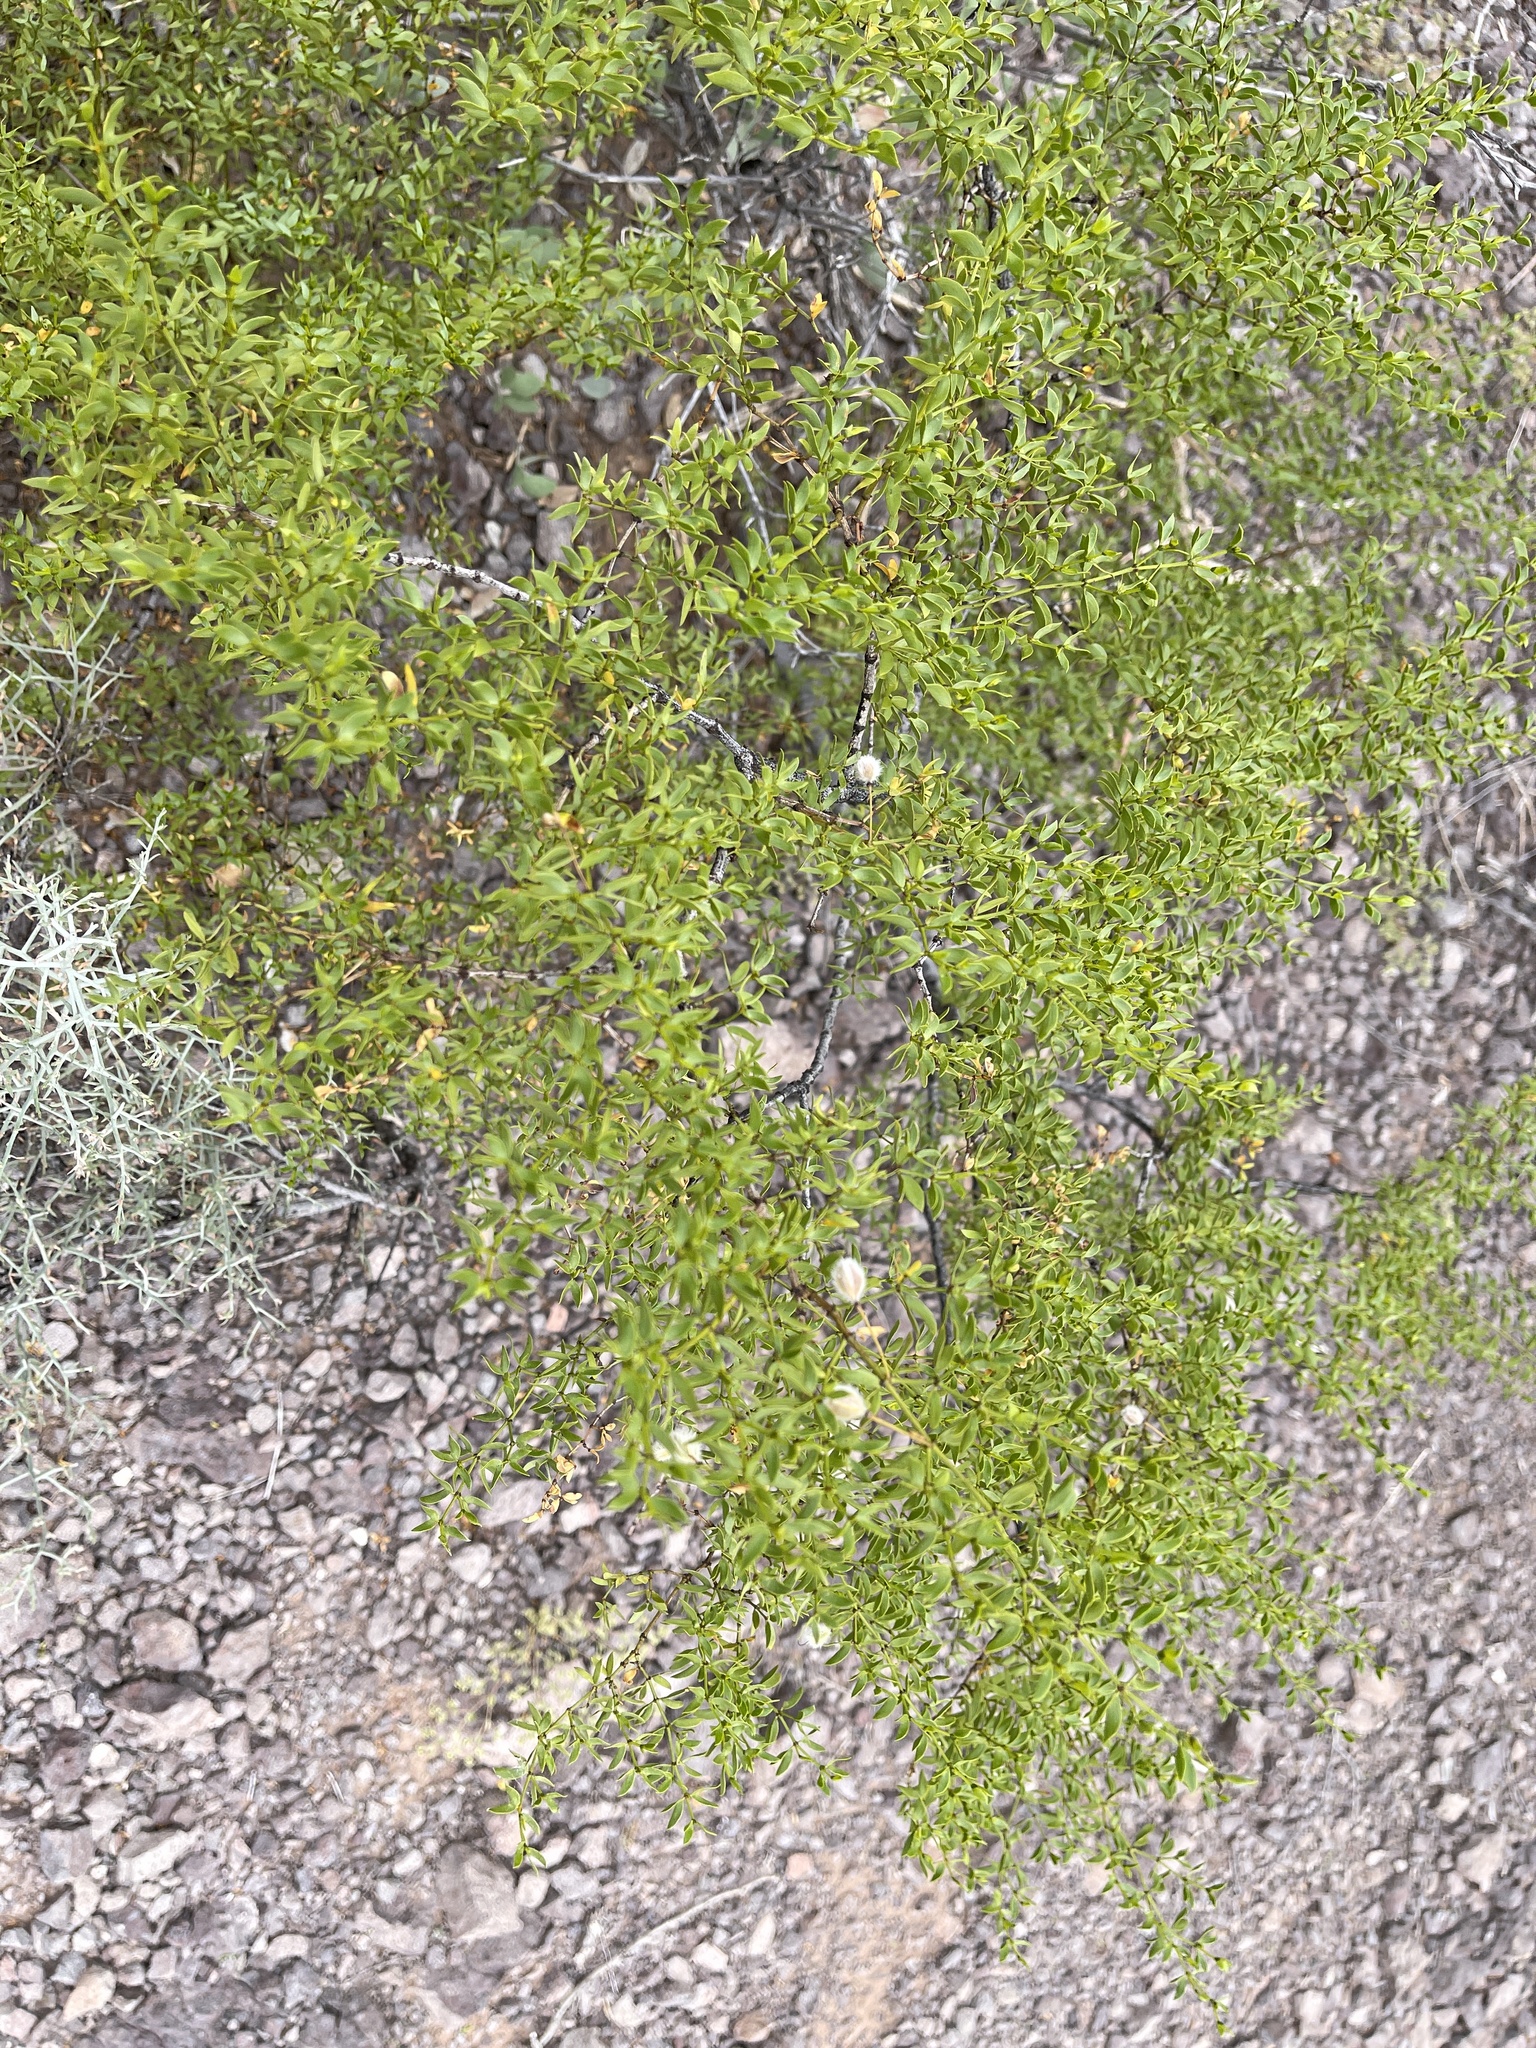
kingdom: Plantae
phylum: Tracheophyta
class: Magnoliopsida
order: Zygophyllales
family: Zygophyllaceae
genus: Larrea
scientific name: Larrea tridentata
